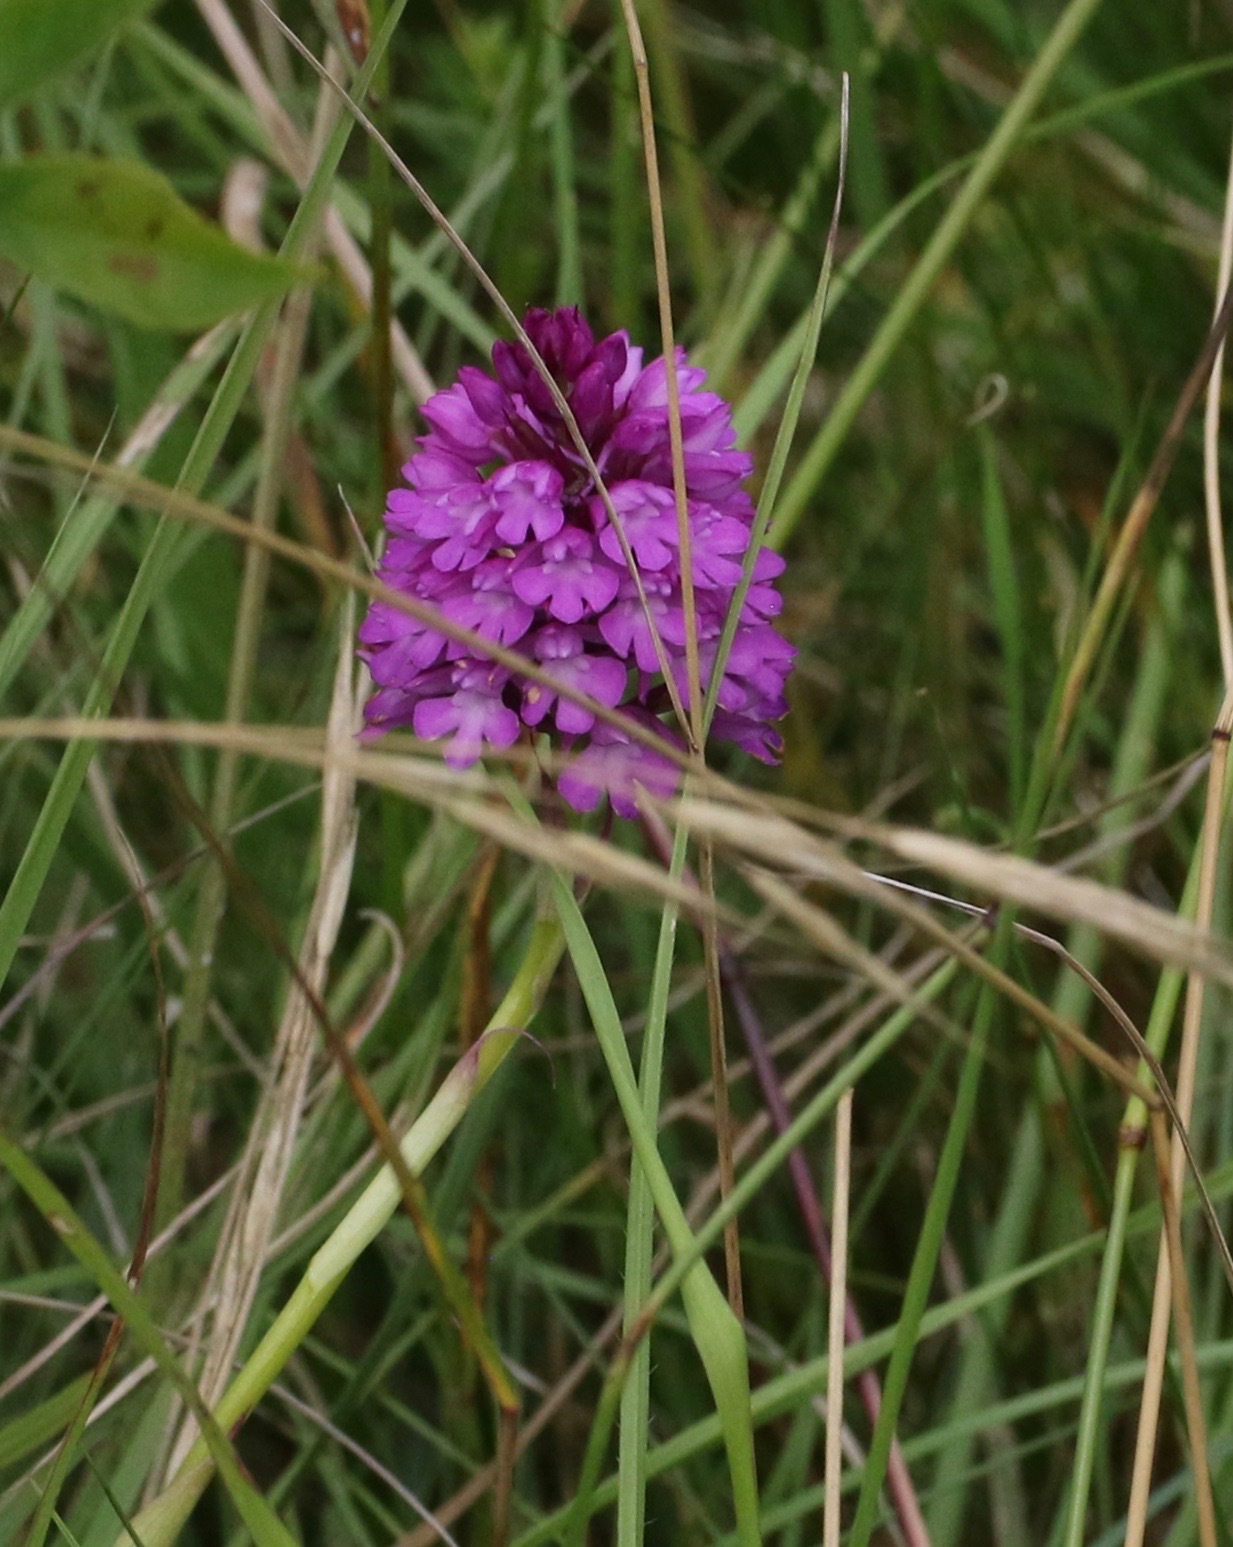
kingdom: Plantae
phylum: Tracheophyta
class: Liliopsida
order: Asparagales
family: Orchidaceae
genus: Anacamptis
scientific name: Anacamptis pyramidalis
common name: Pyramidal orchid
